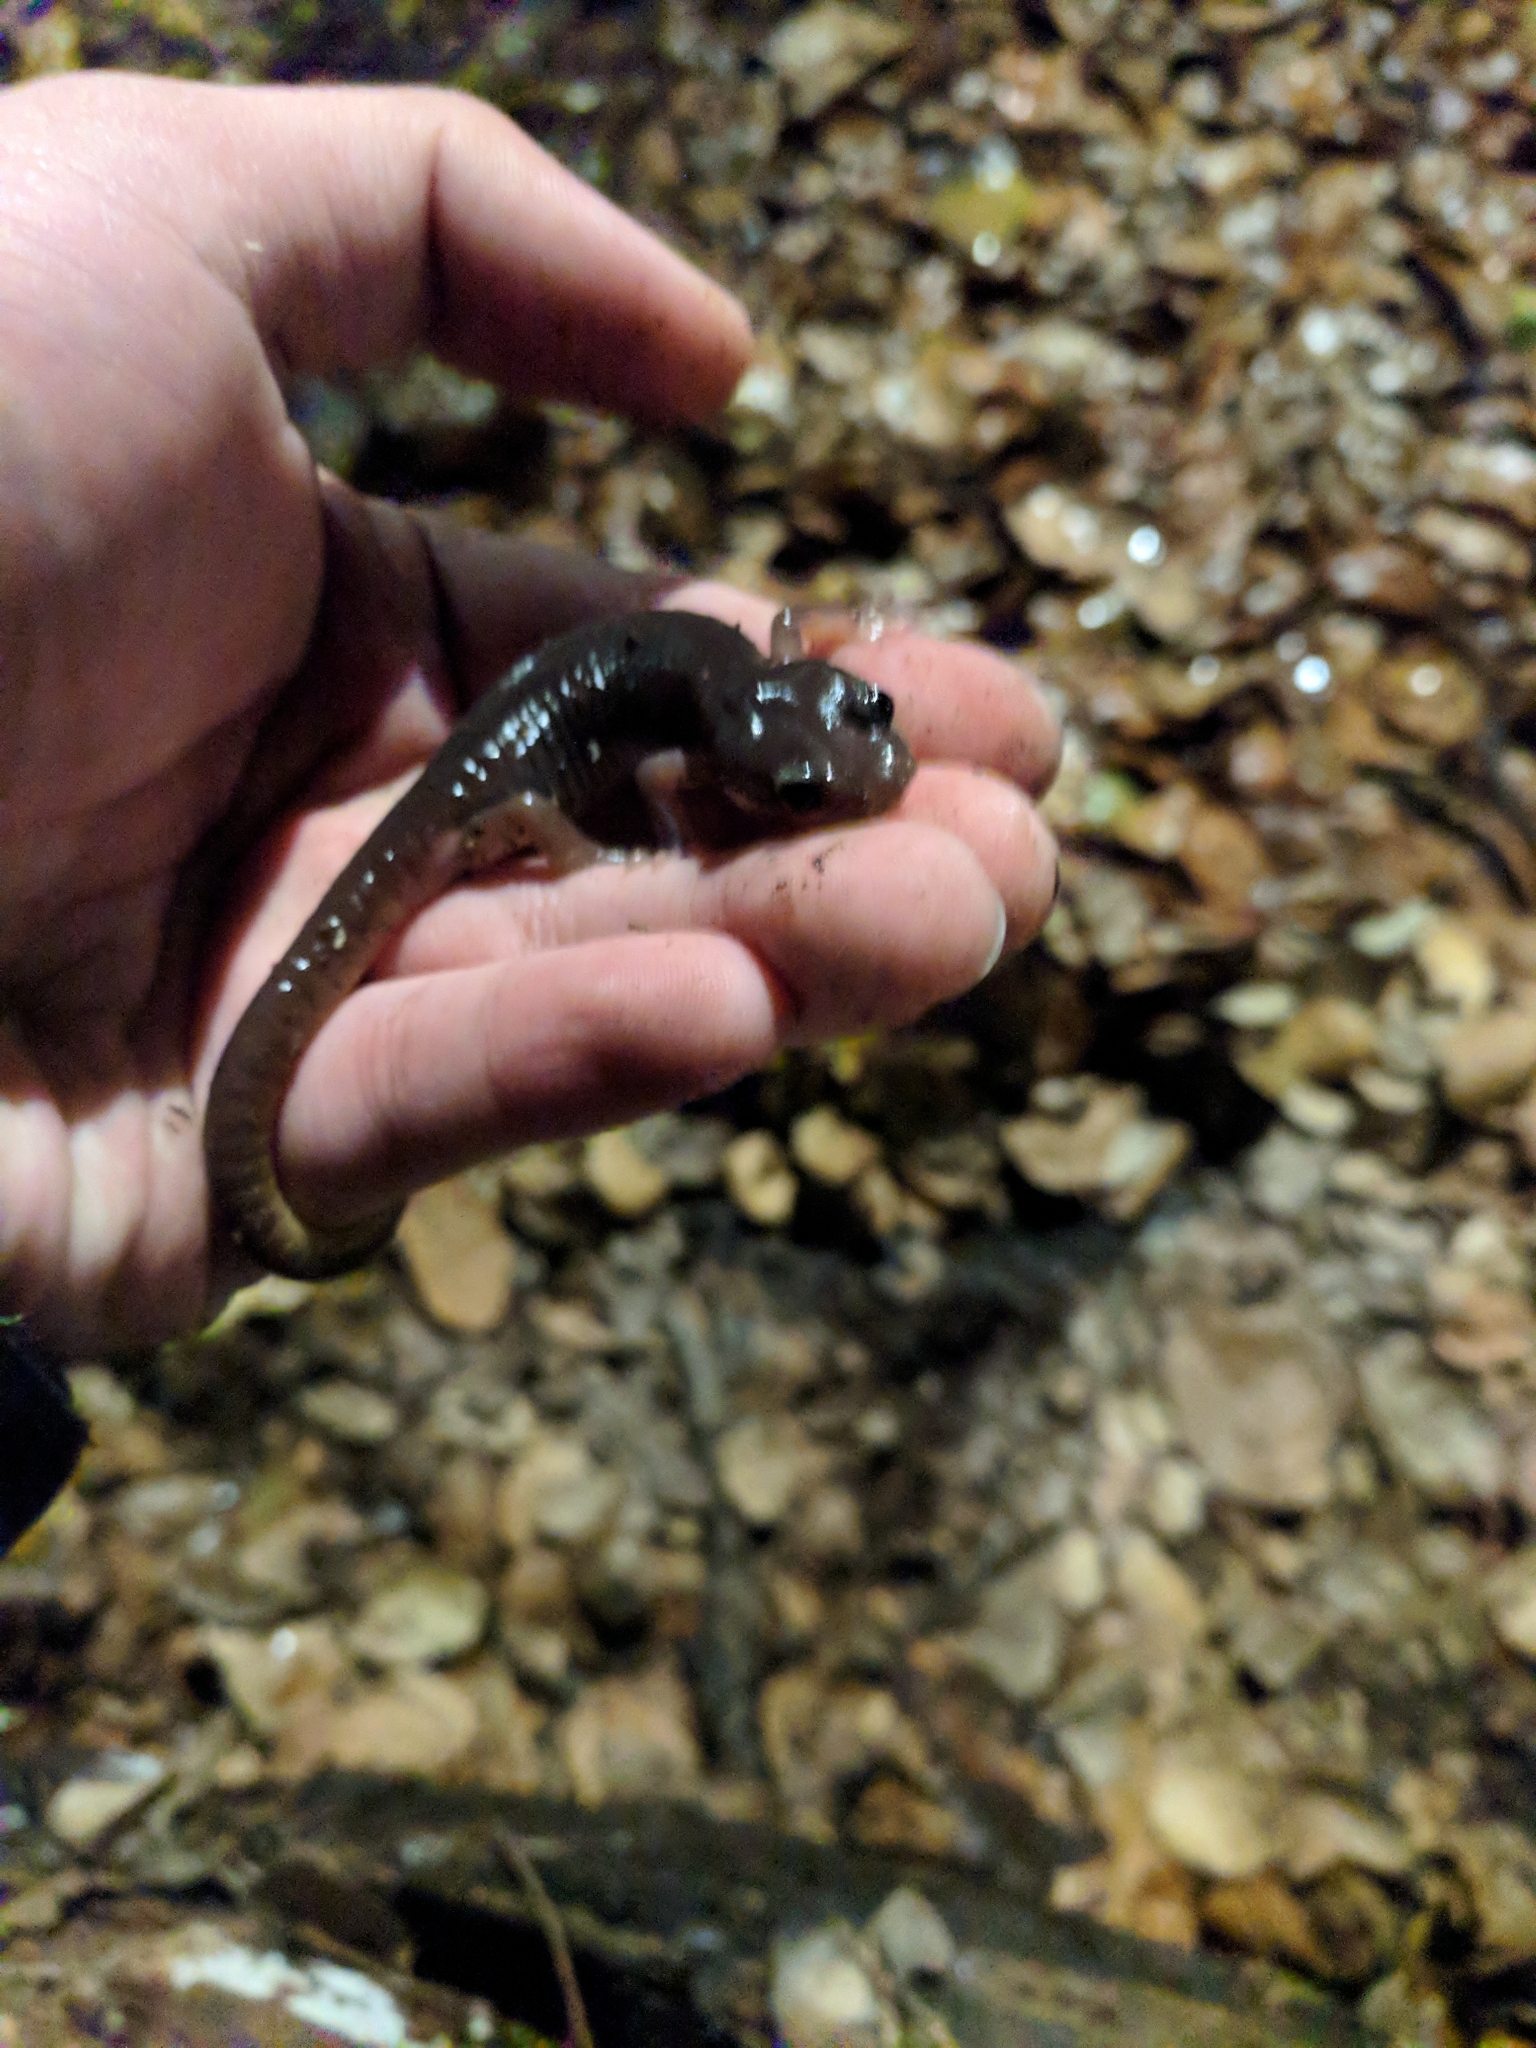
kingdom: Animalia
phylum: Chordata
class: Amphibia
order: Caudata
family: Plethodontidae
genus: Aneides
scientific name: Aneides lugubris
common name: Arboreal salamander
